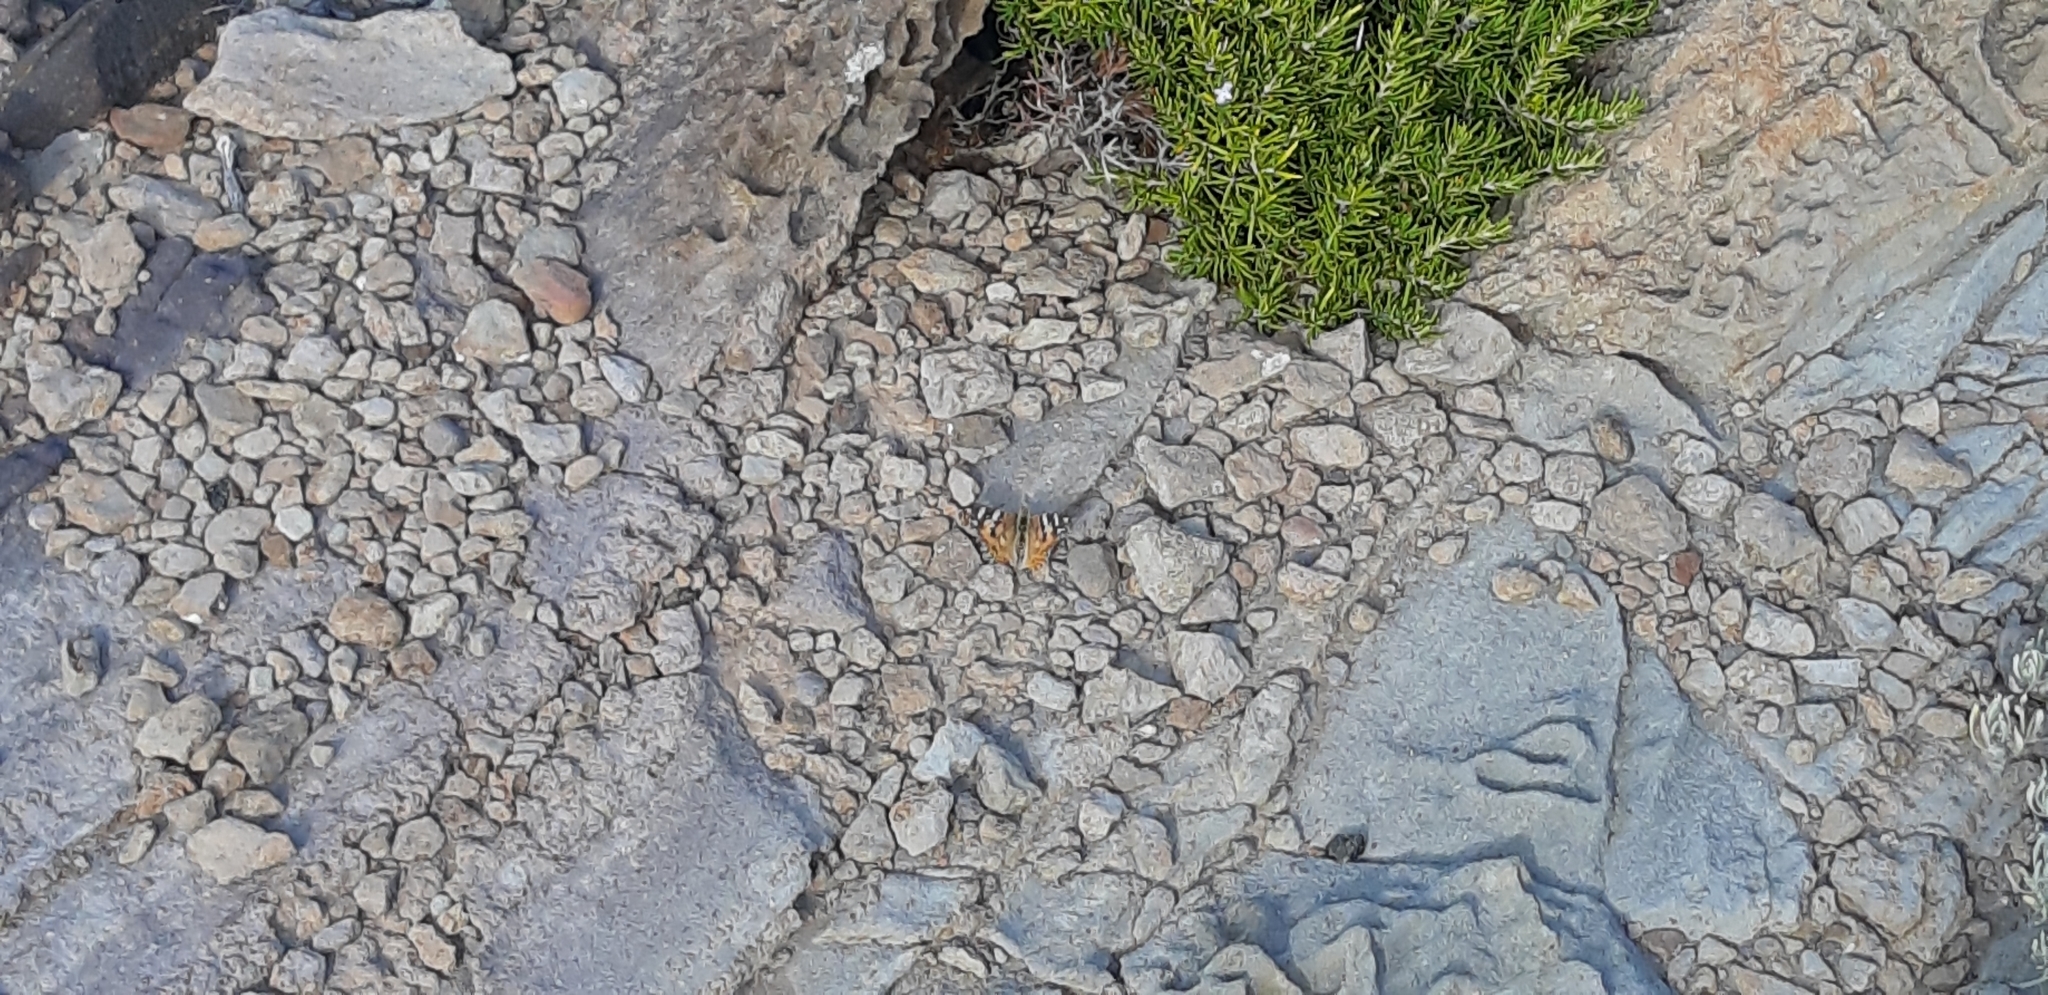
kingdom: Animalia
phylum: Arthropoda
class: Insecta
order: Lepidoptera
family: Nymphalidae
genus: Vanessa
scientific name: Vanessa cardui
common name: Painted lady
